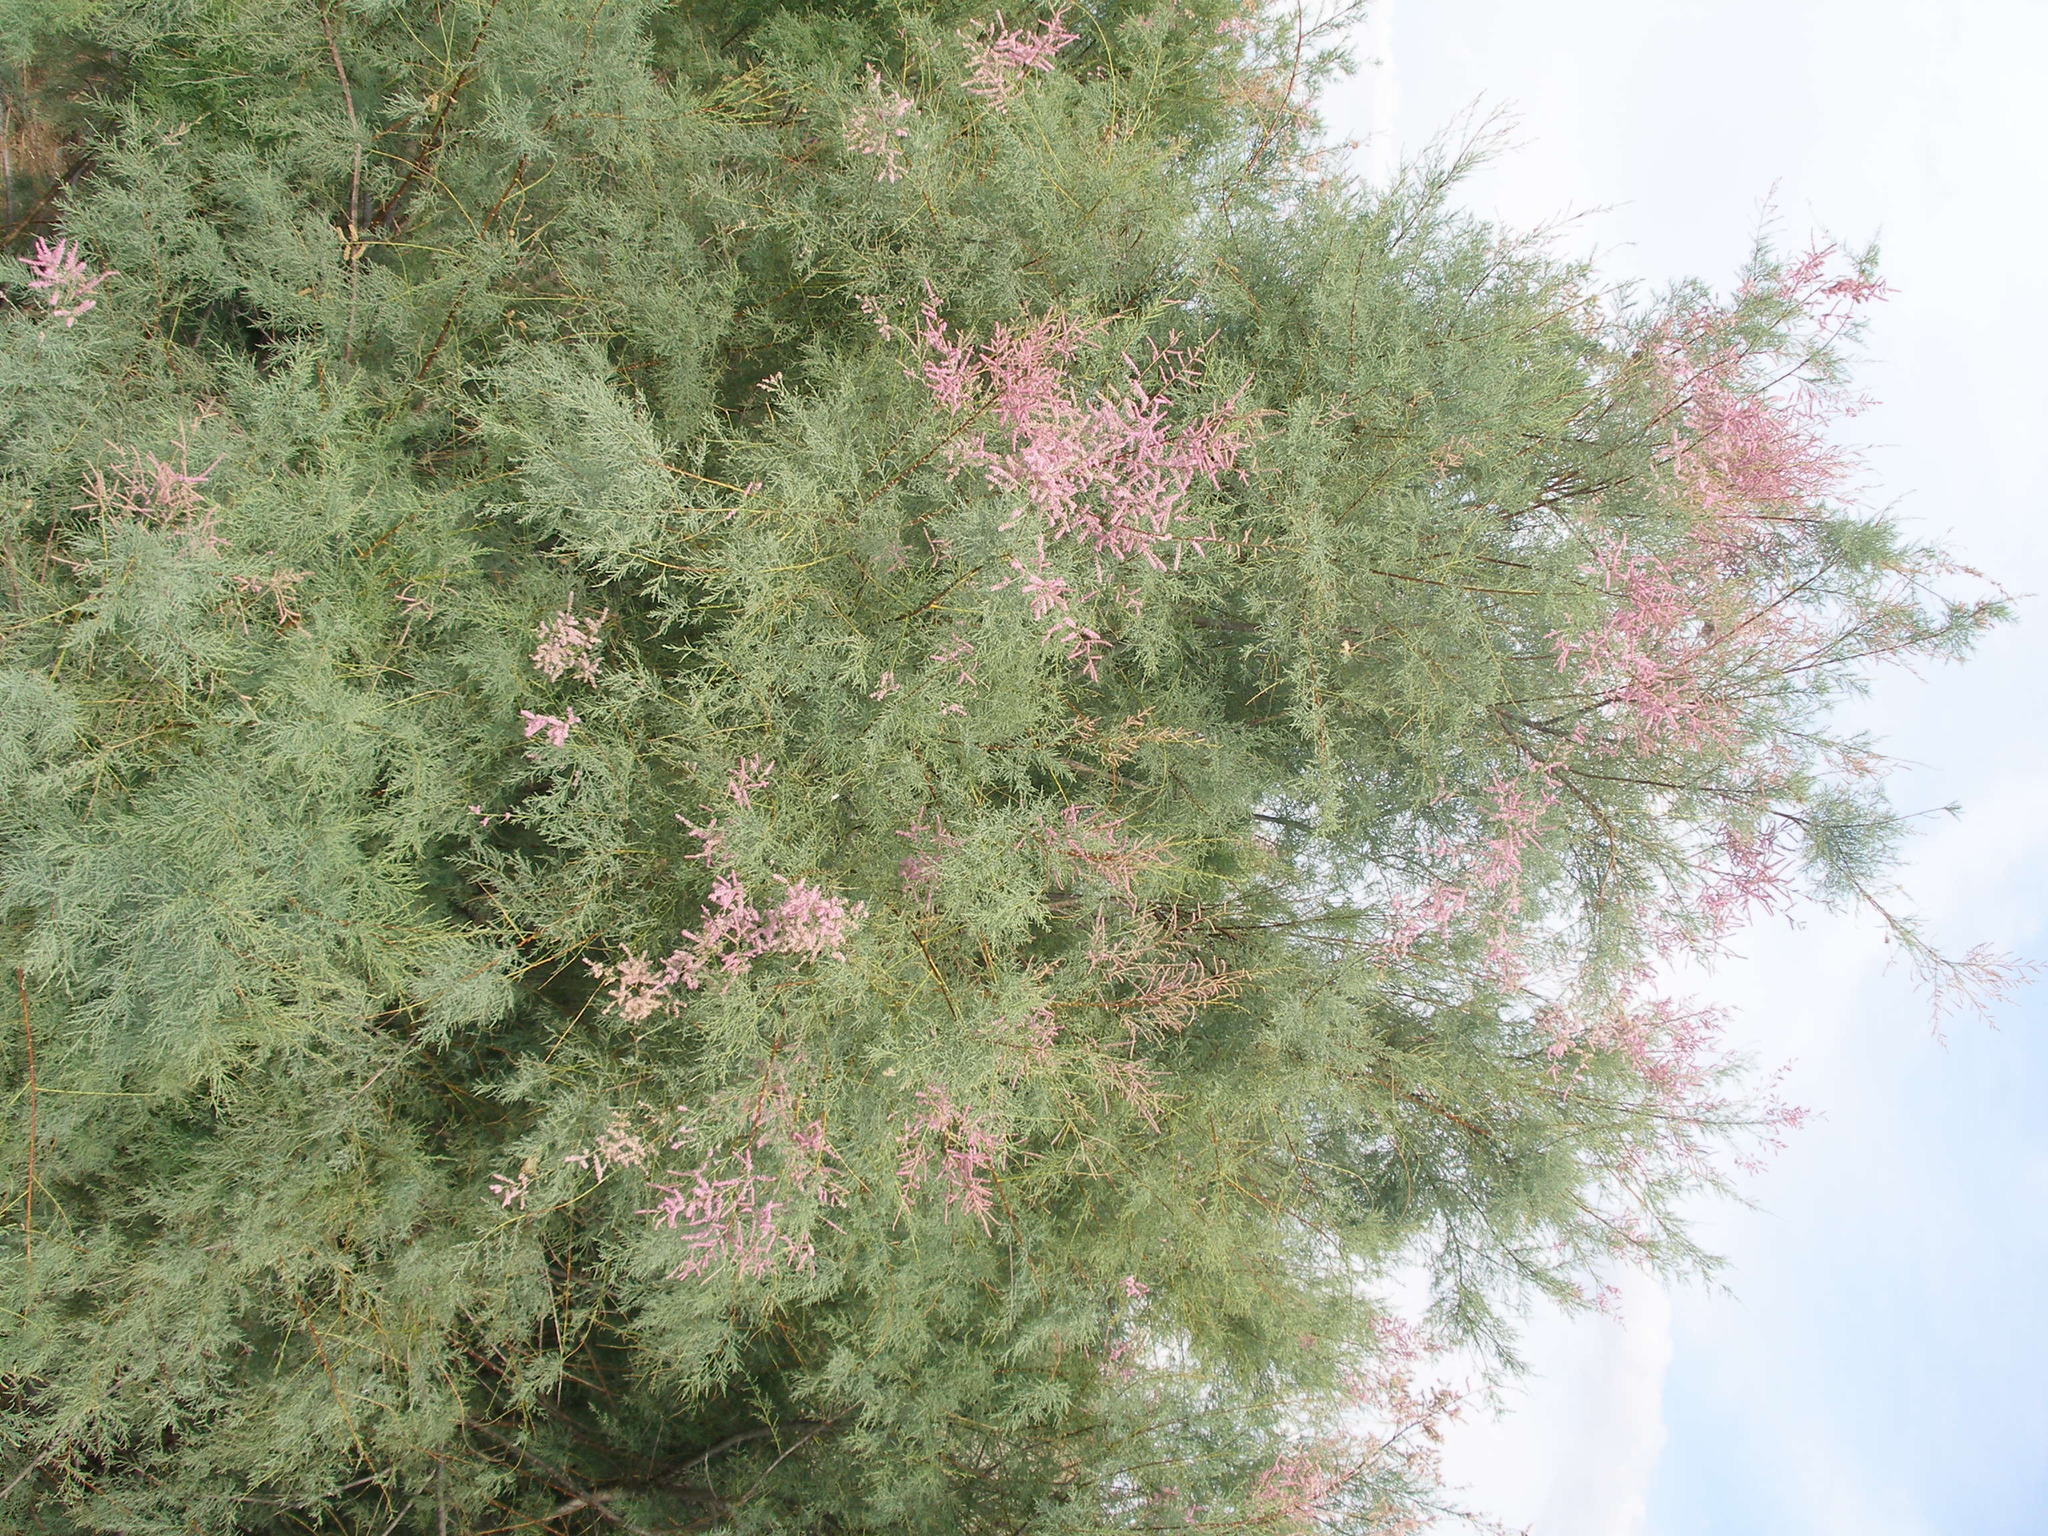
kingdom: Plantae
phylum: Tracheophyta
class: Magnoliopsida
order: Caryophyllales
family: Tamaricaceae
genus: Tamarix
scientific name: Tamarix ramosissima
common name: Pink tamarisk
